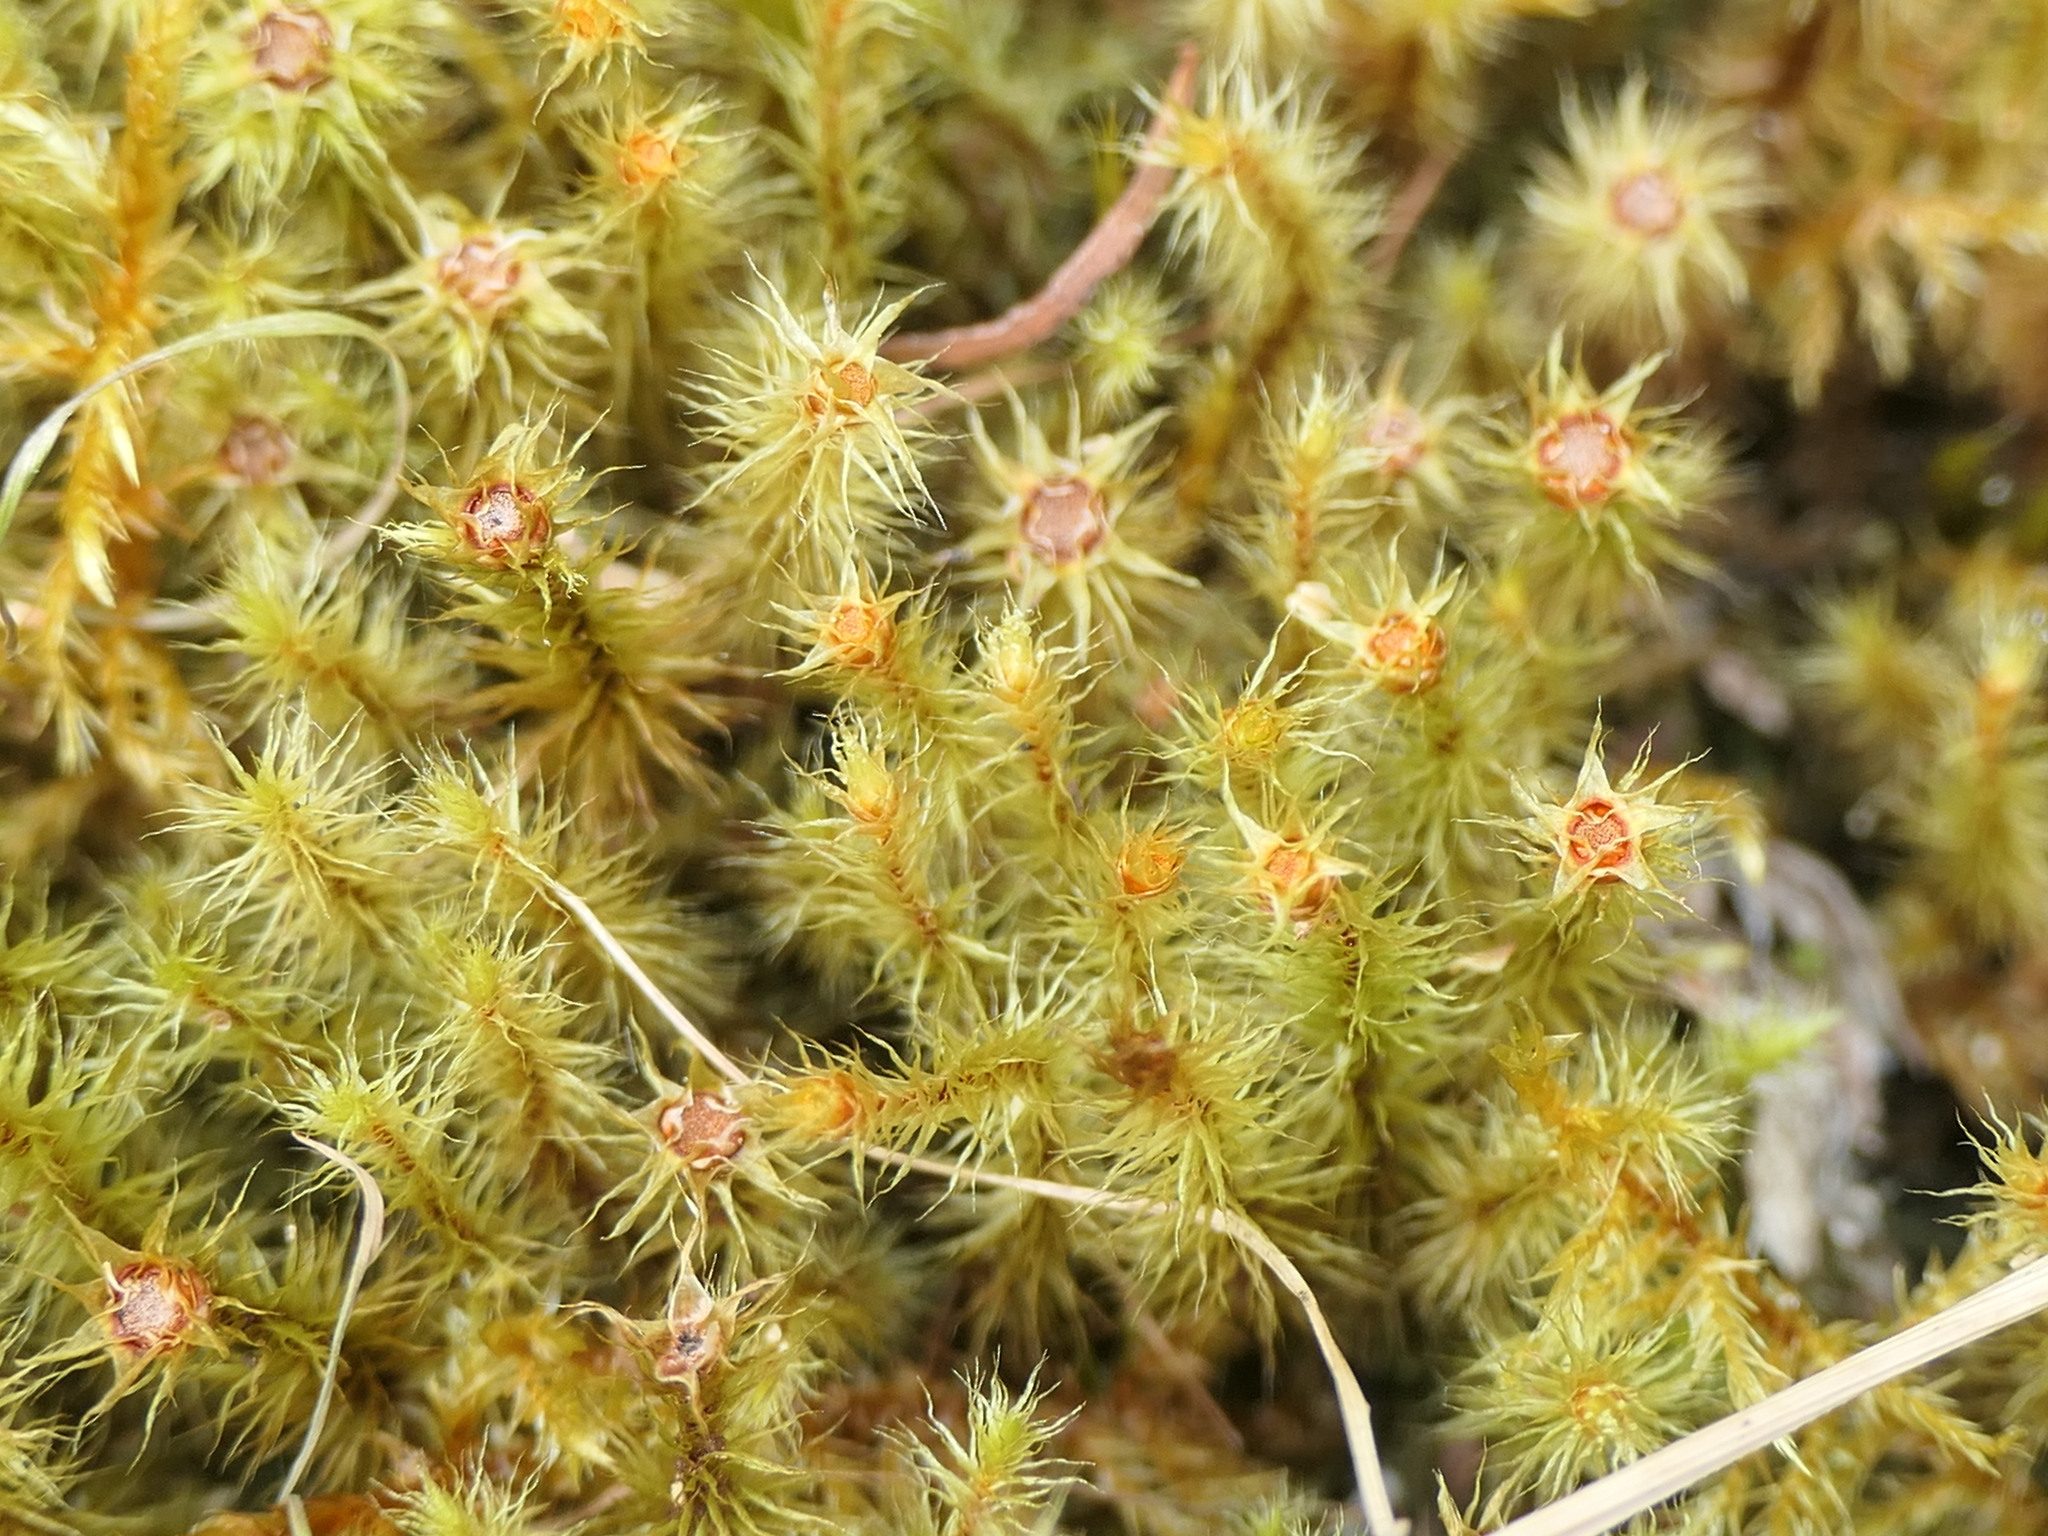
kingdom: Plantae
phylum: Bryophyta
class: Bryopsida
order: Bartramiales
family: Bartramiaceae
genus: Breutelia
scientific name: Breutelia elongata
